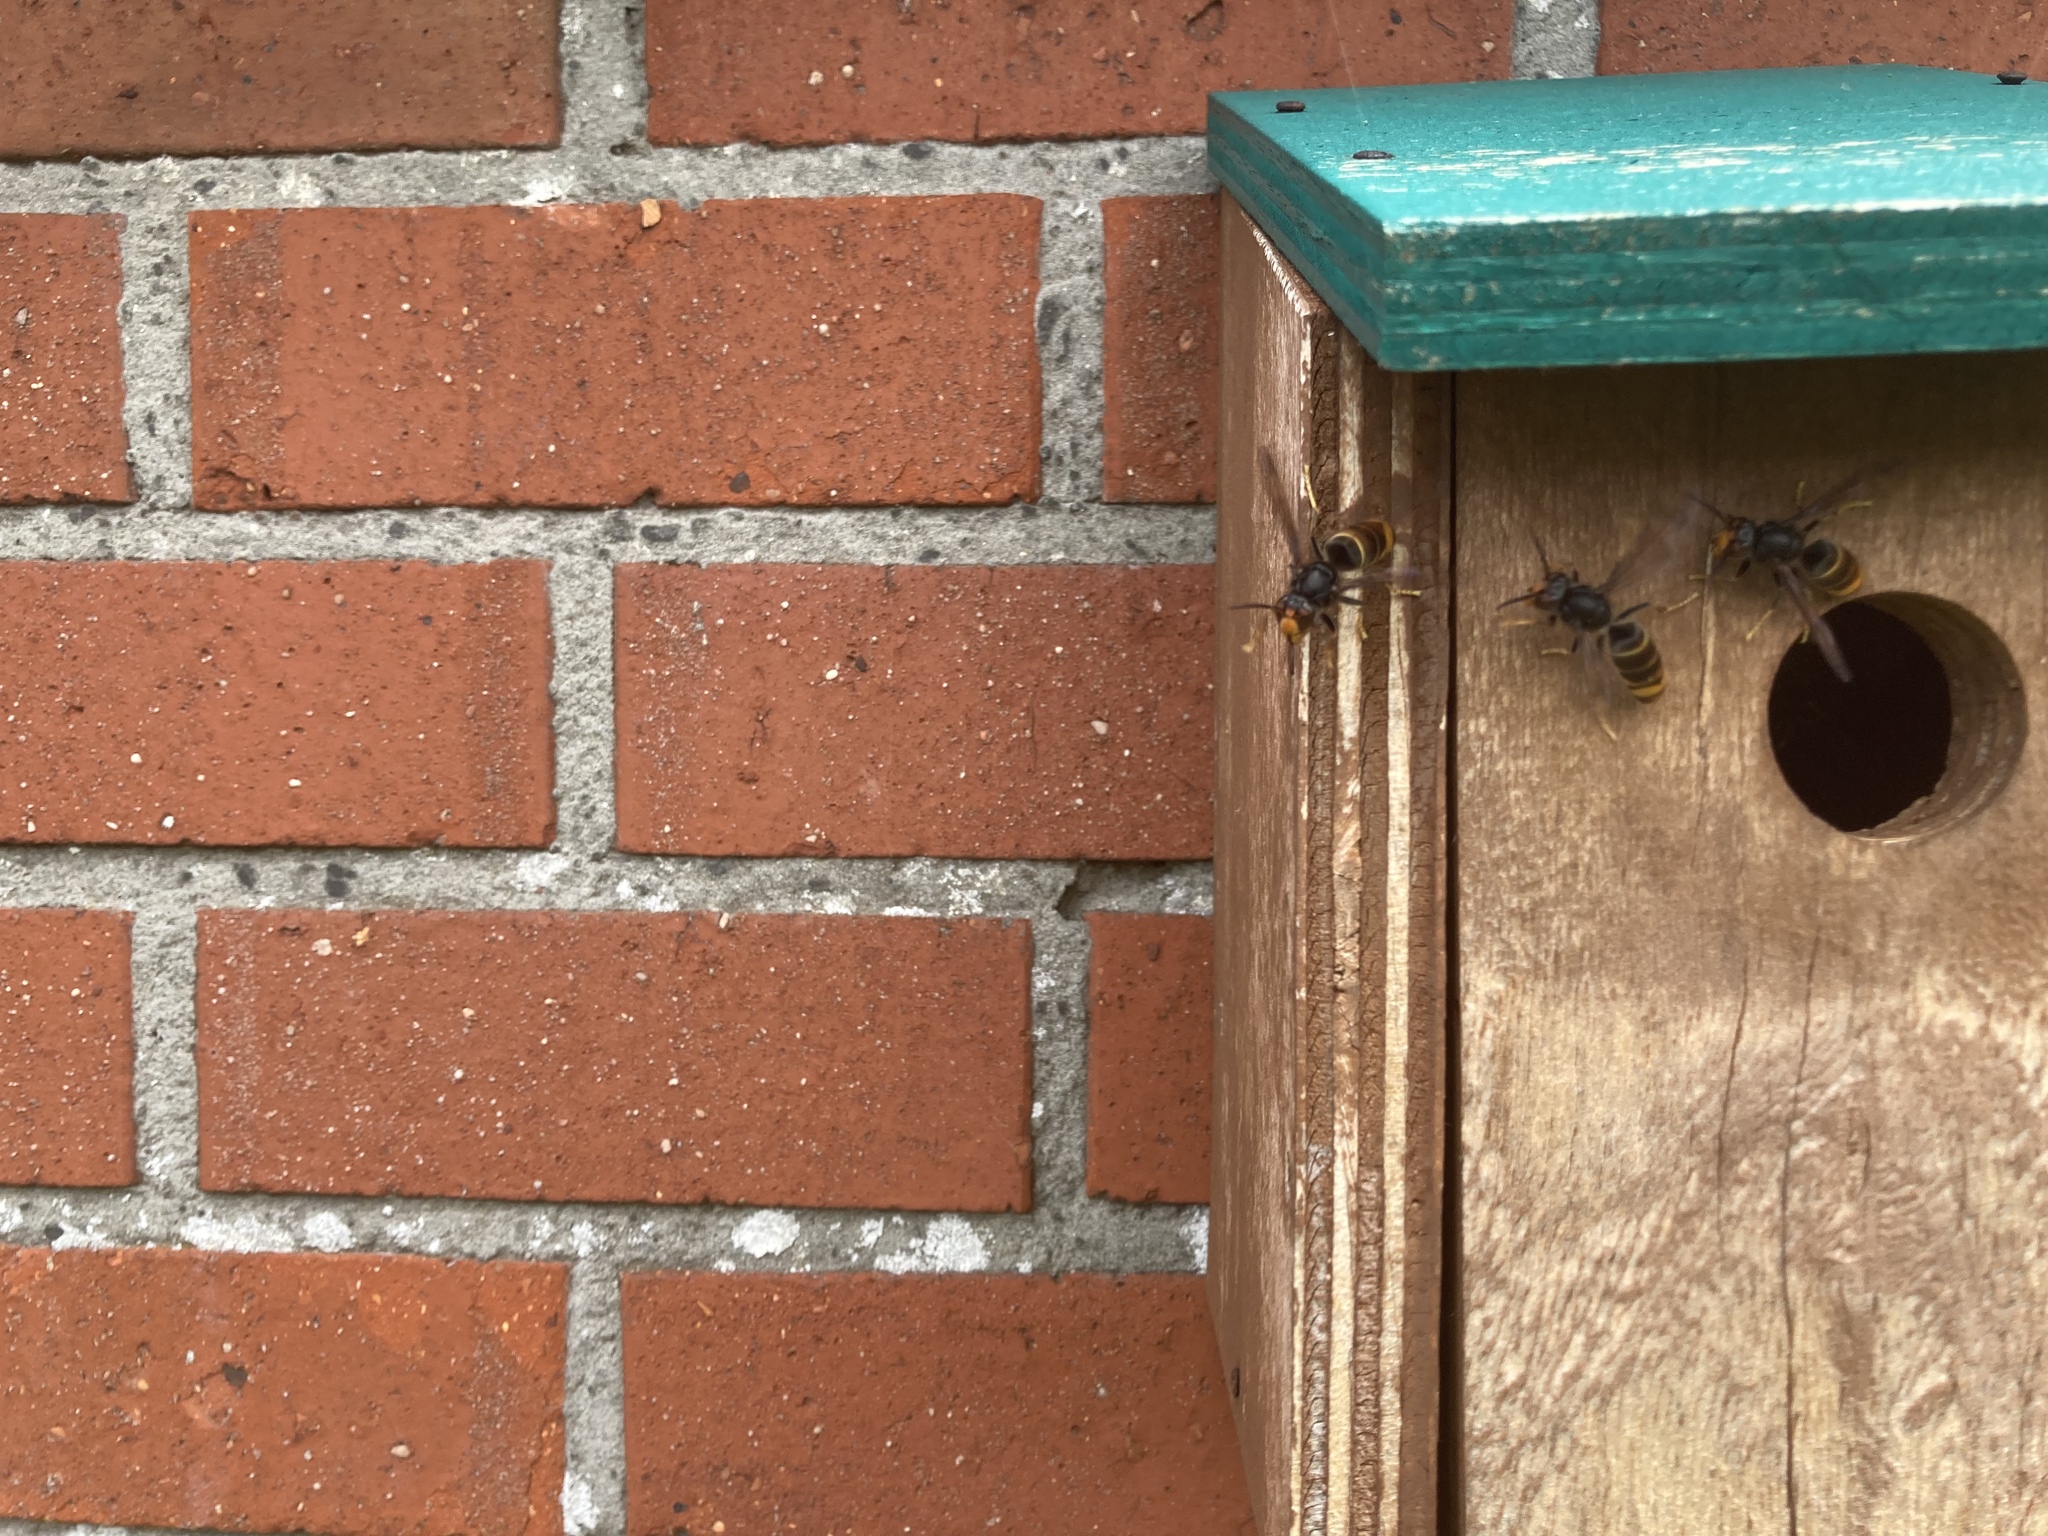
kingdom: Animalia
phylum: Arthropoda
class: Insecta
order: Hymenoptera
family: Vespidae
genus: Vespa
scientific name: Vespa velutina
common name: Asian hornet
